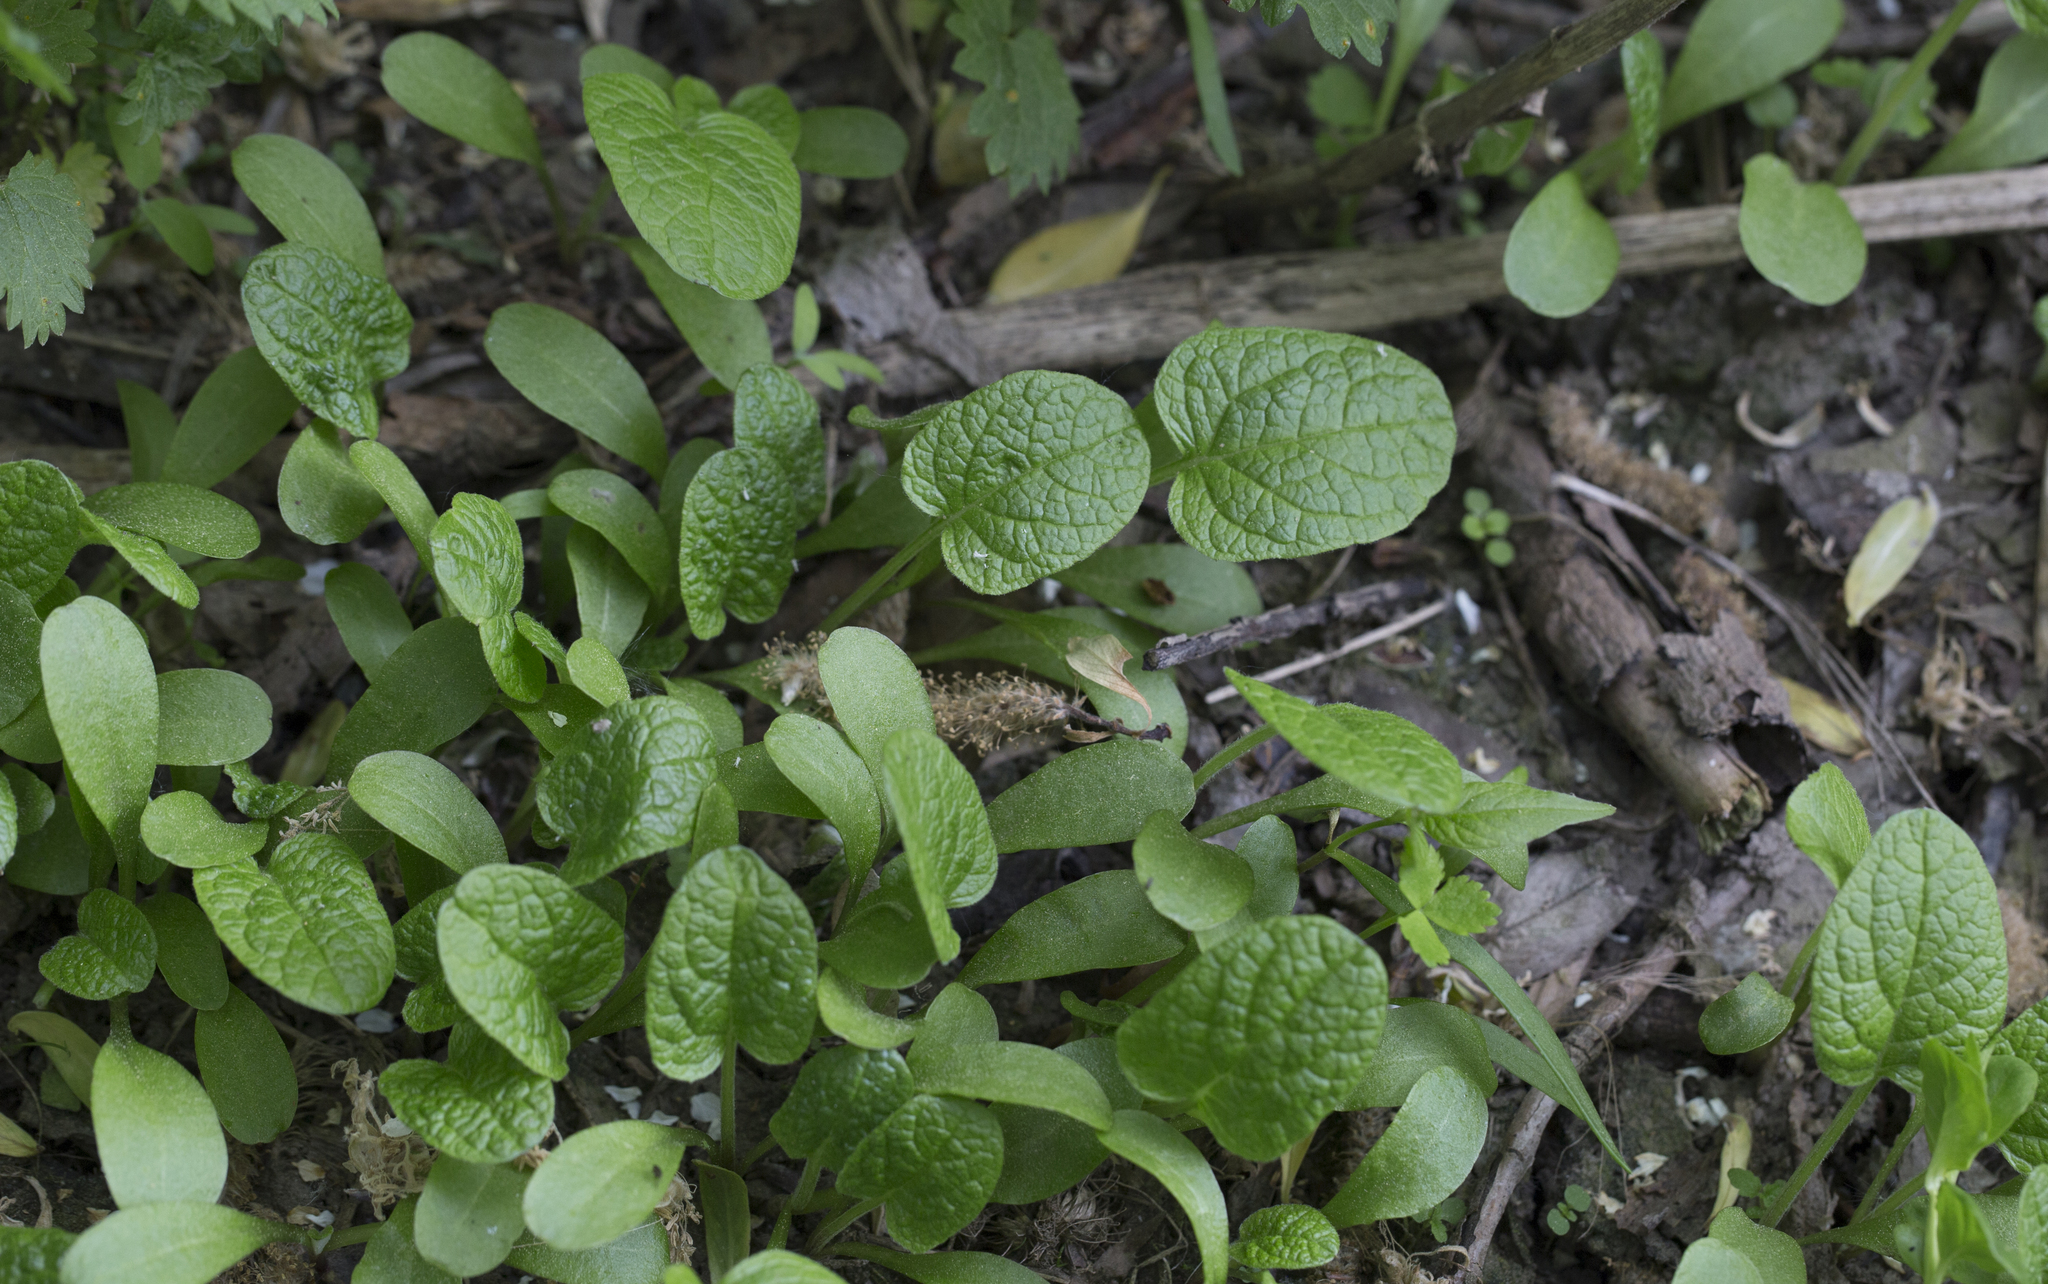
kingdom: Plantae
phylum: Tracheophyta
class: Magnoliopsida
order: Asterales
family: Asteraceae
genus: Arctium
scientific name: Arctium
